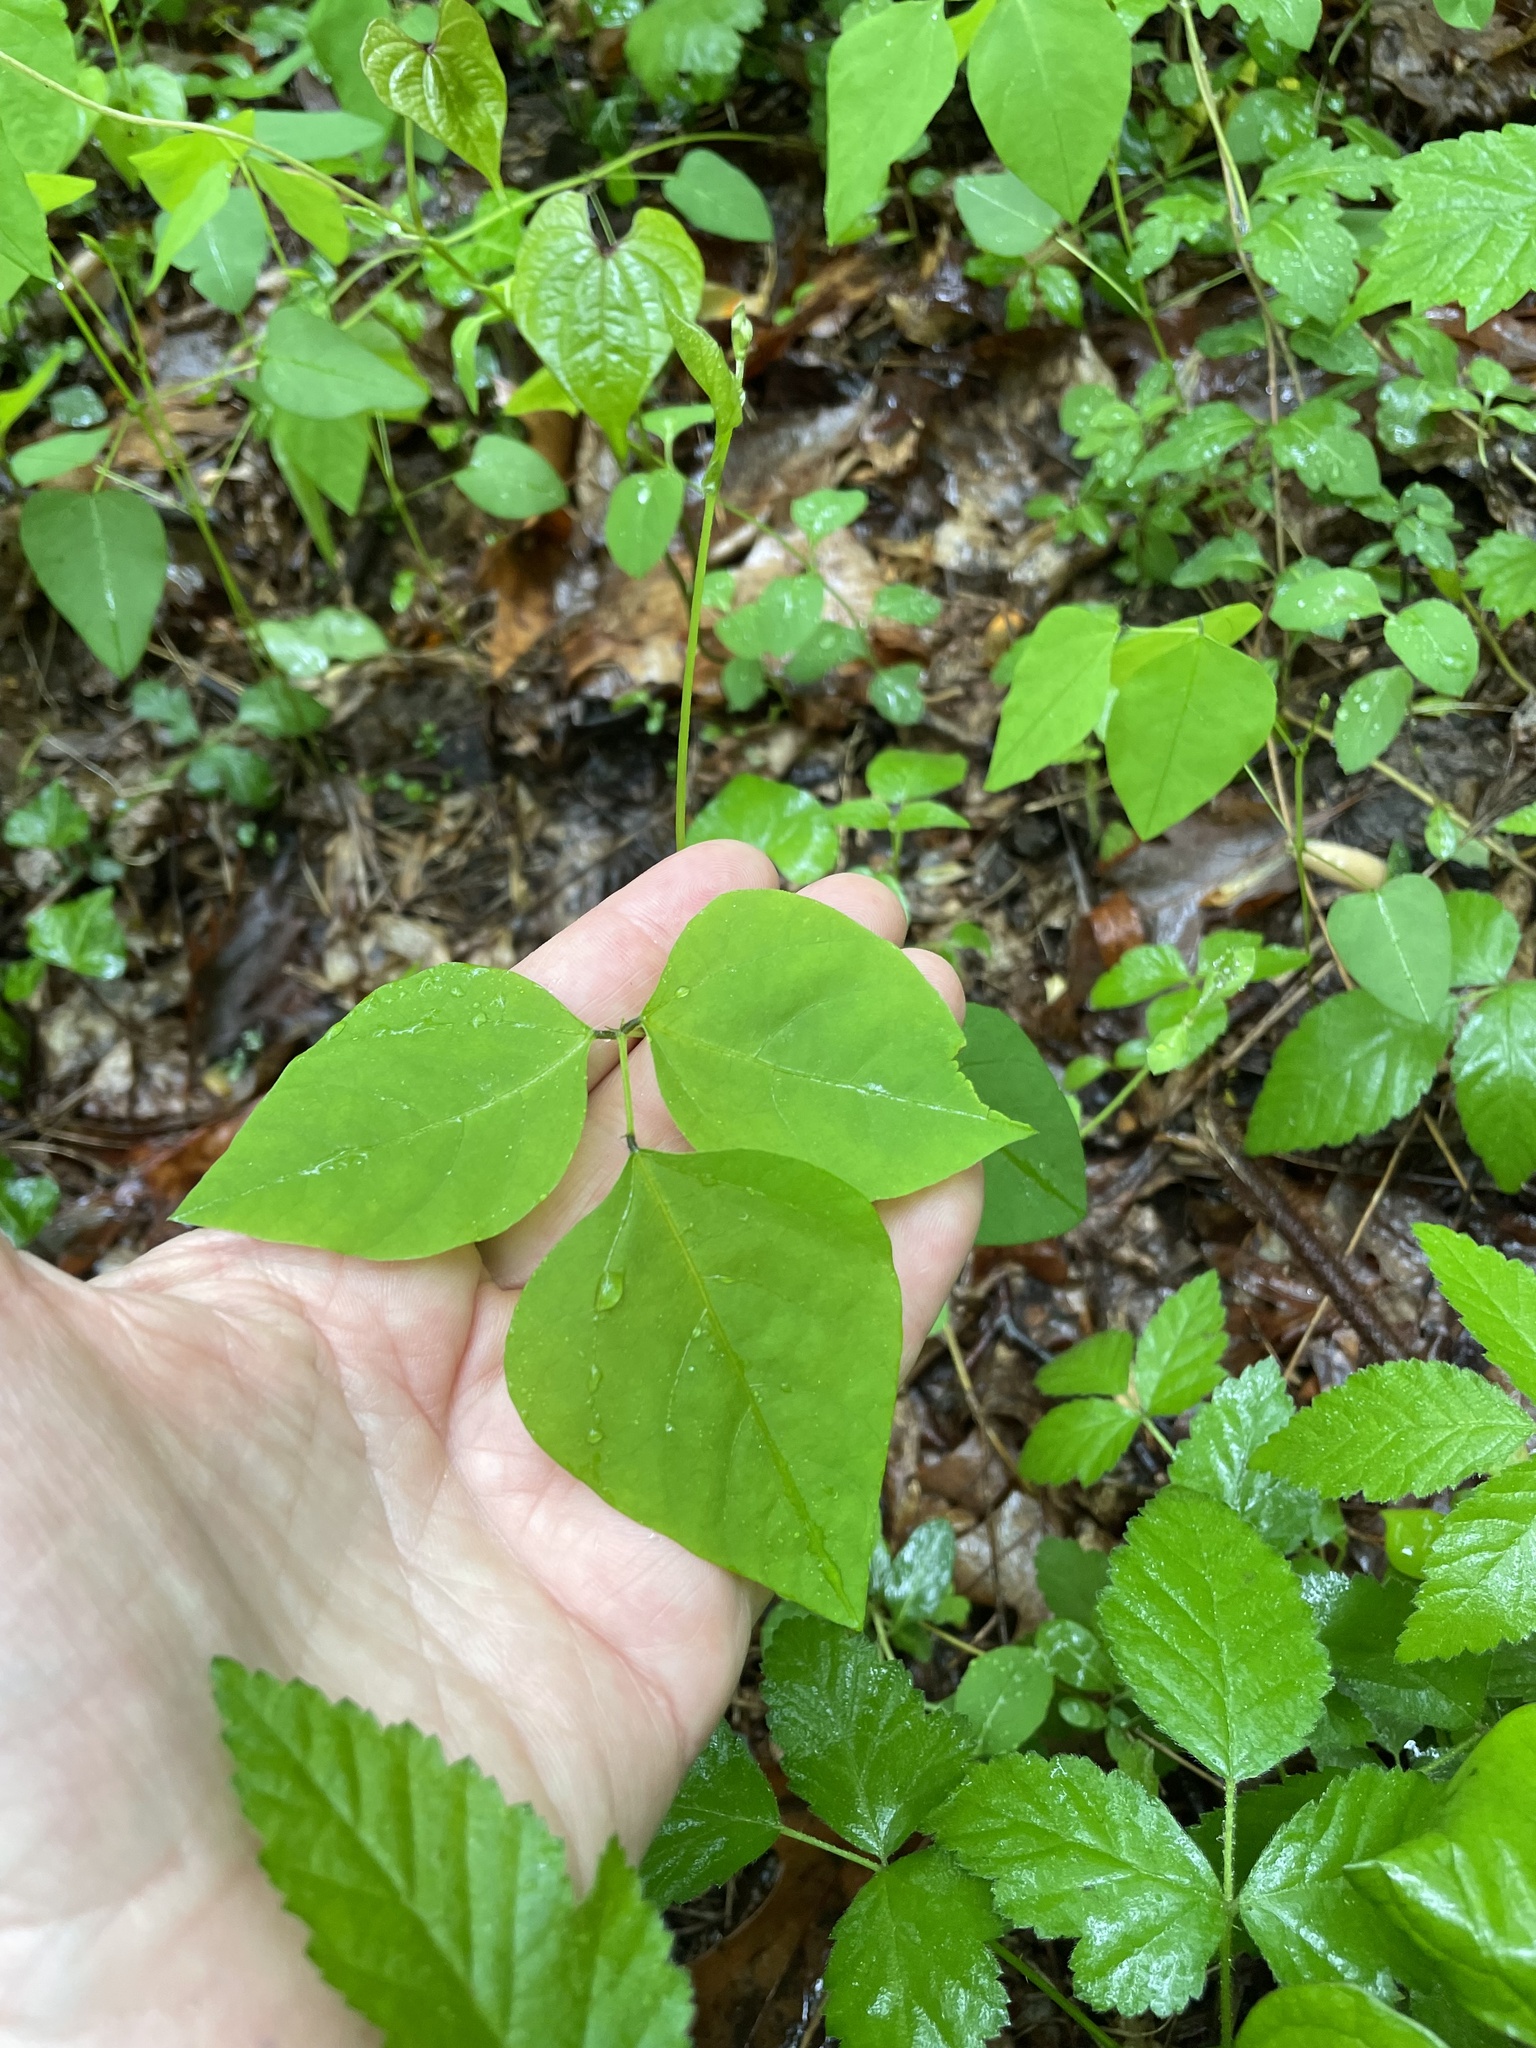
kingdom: Plantae
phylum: Tracheophyta
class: Magnoliopsida
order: Fabales
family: Fabaceae
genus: Amphicarpaea
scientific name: Amphicarpaea bracteata
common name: American hog peanut
